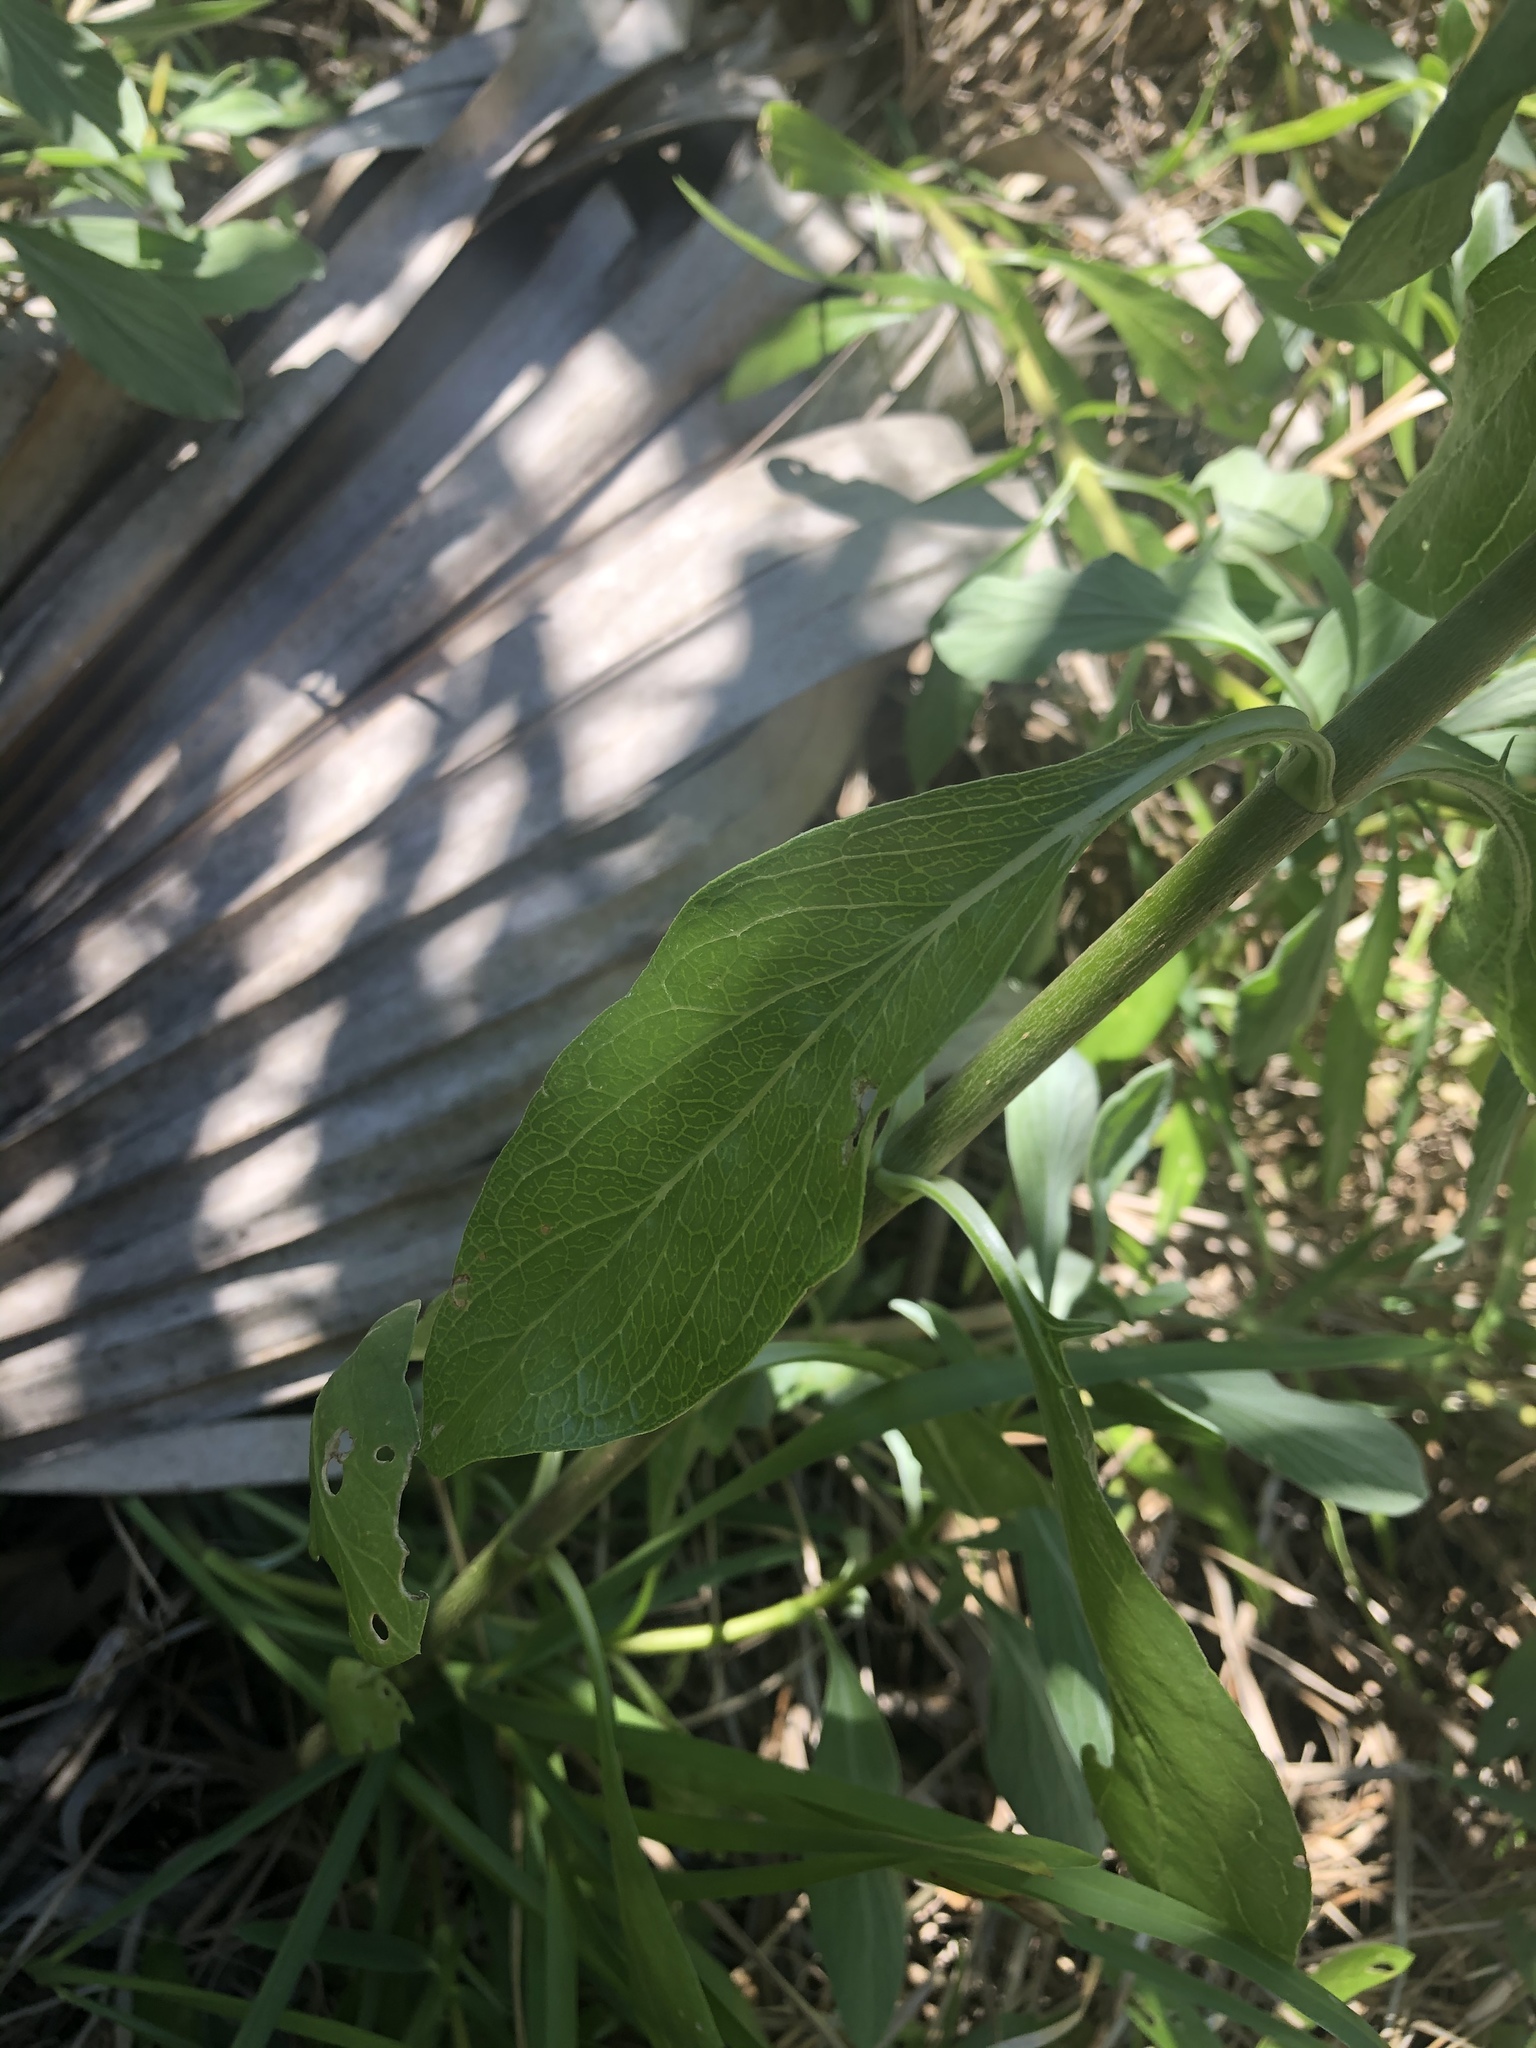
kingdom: Plantae
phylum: Tracheophyta
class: Magnoliopsida
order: Asterales
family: Asteraceae
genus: Borrichia
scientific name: Borrichia frutescens
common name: Sea oxeye
